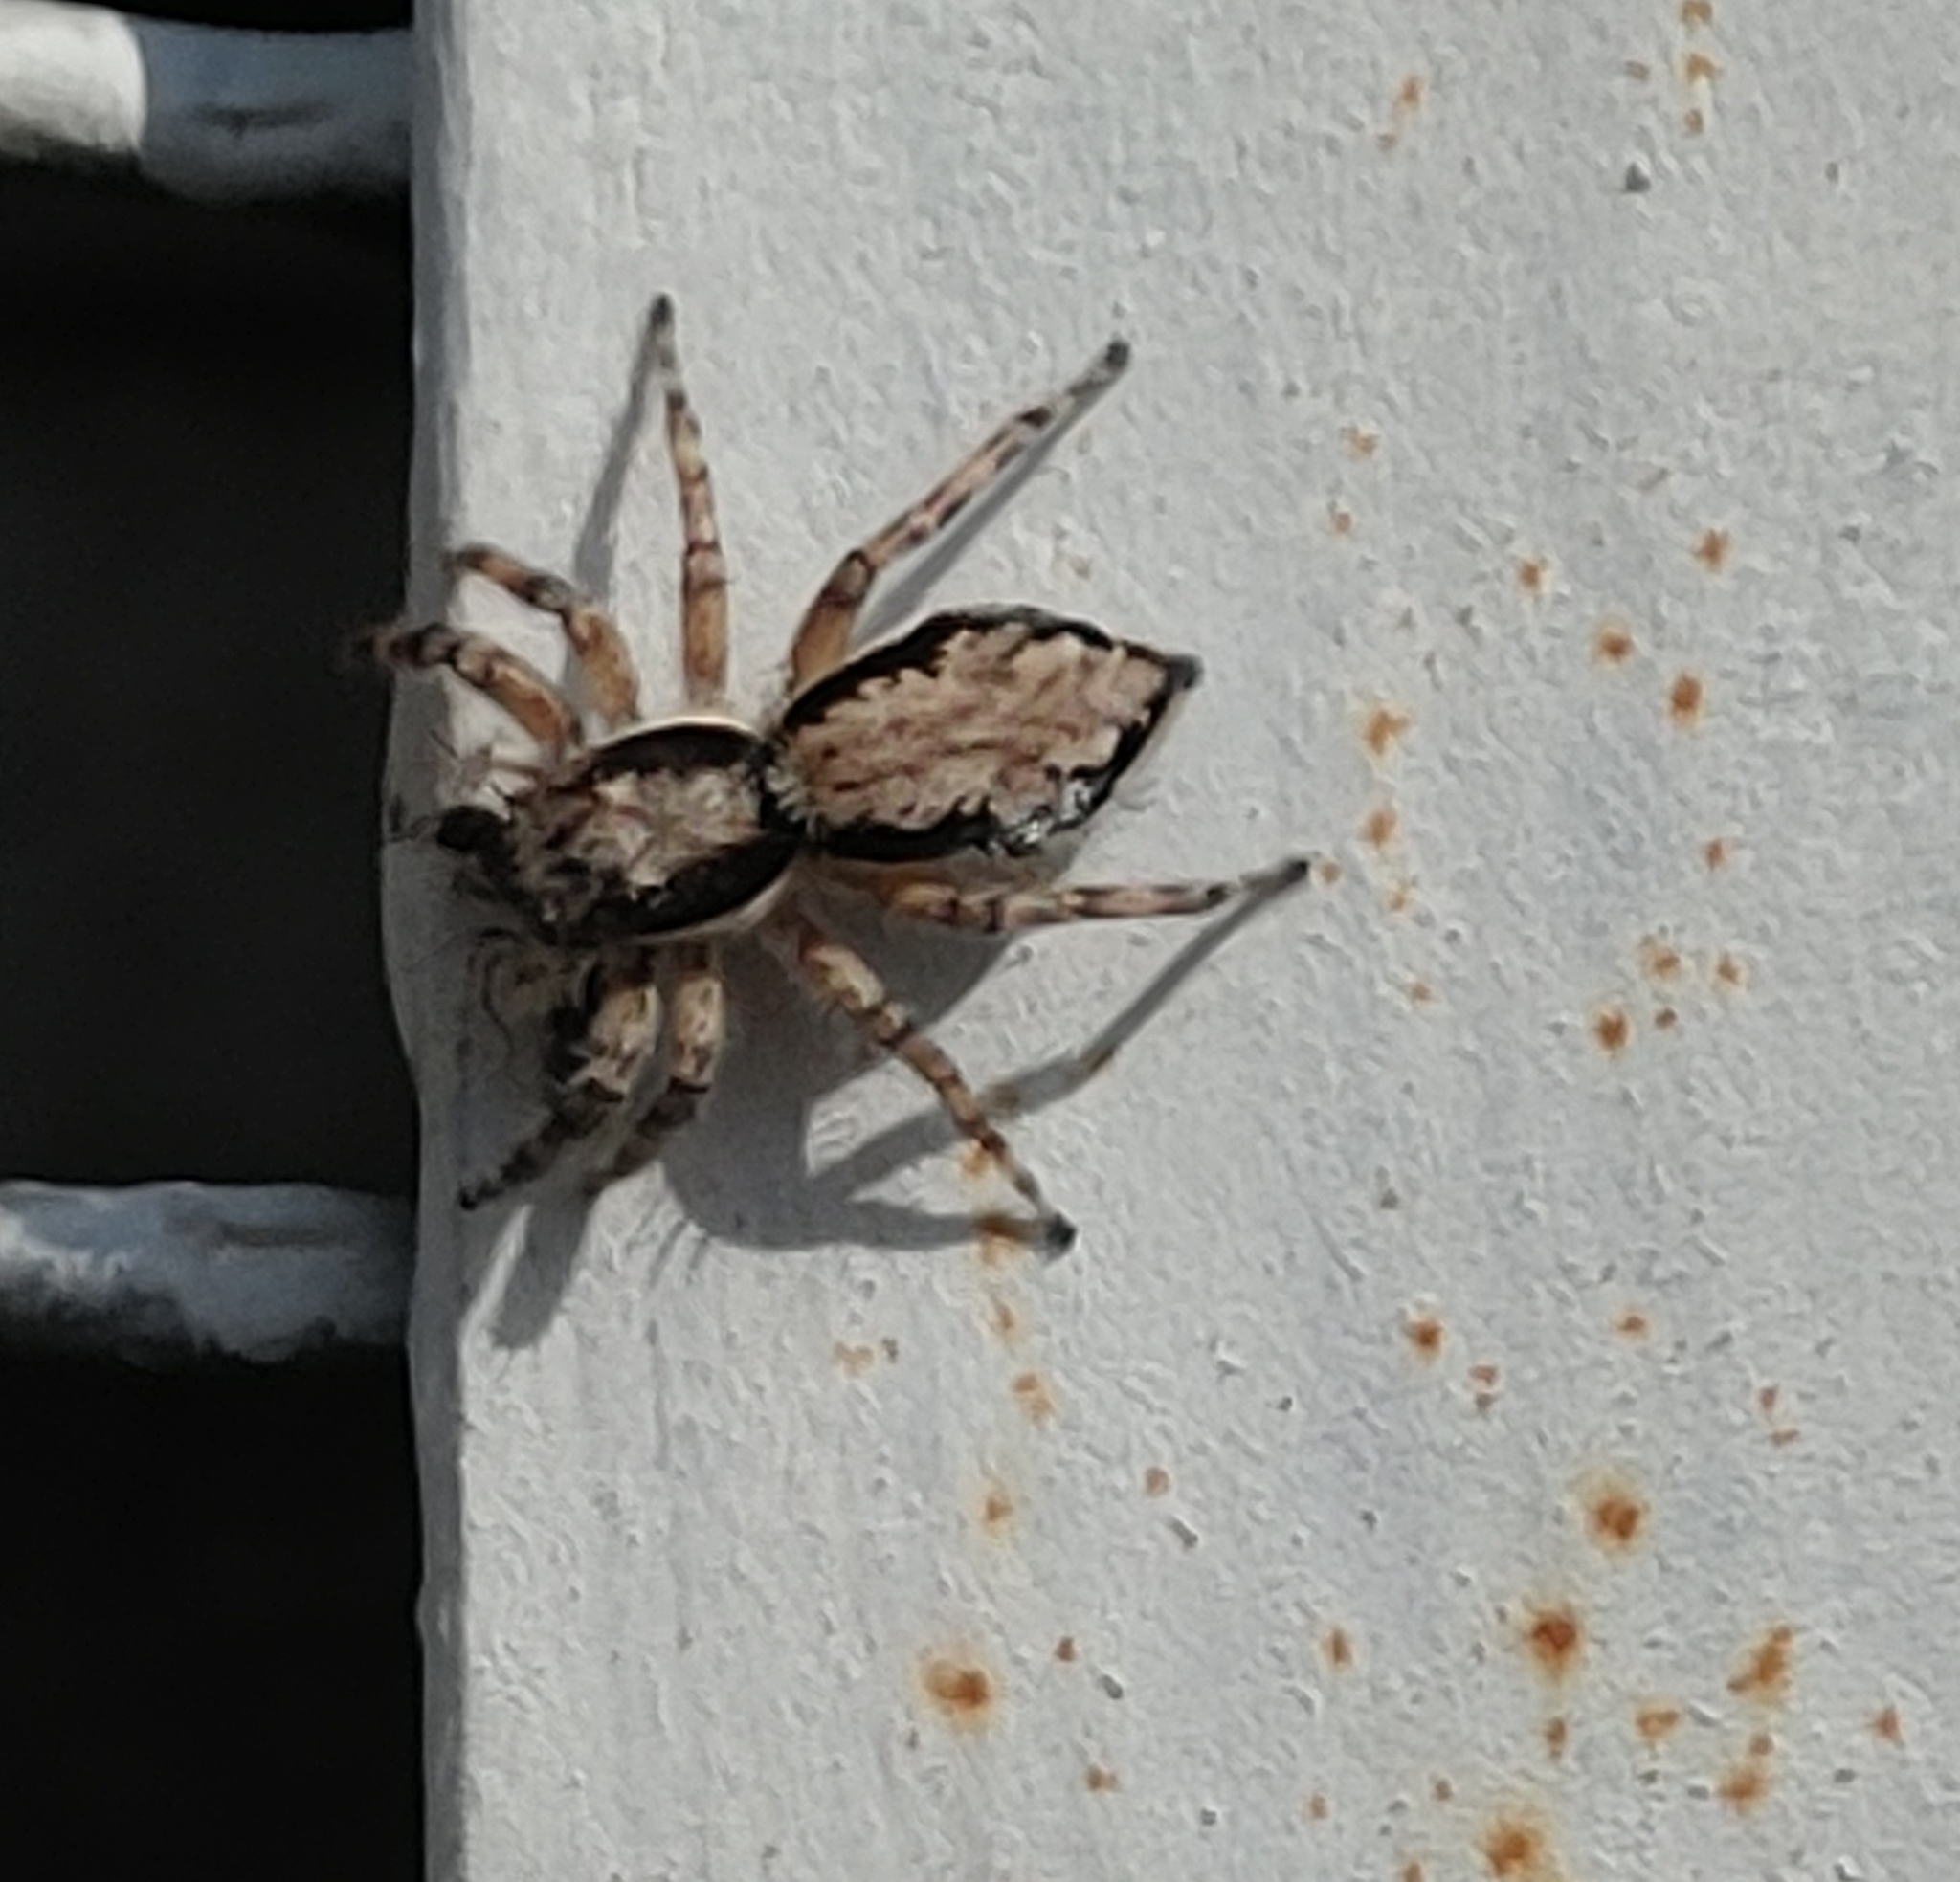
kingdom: Animalia
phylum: Arthropoda
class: Arachnida
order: Araneae
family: Salticidae
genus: Menemerus
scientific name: Menemerus bivittatus
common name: Gray wall jumper
